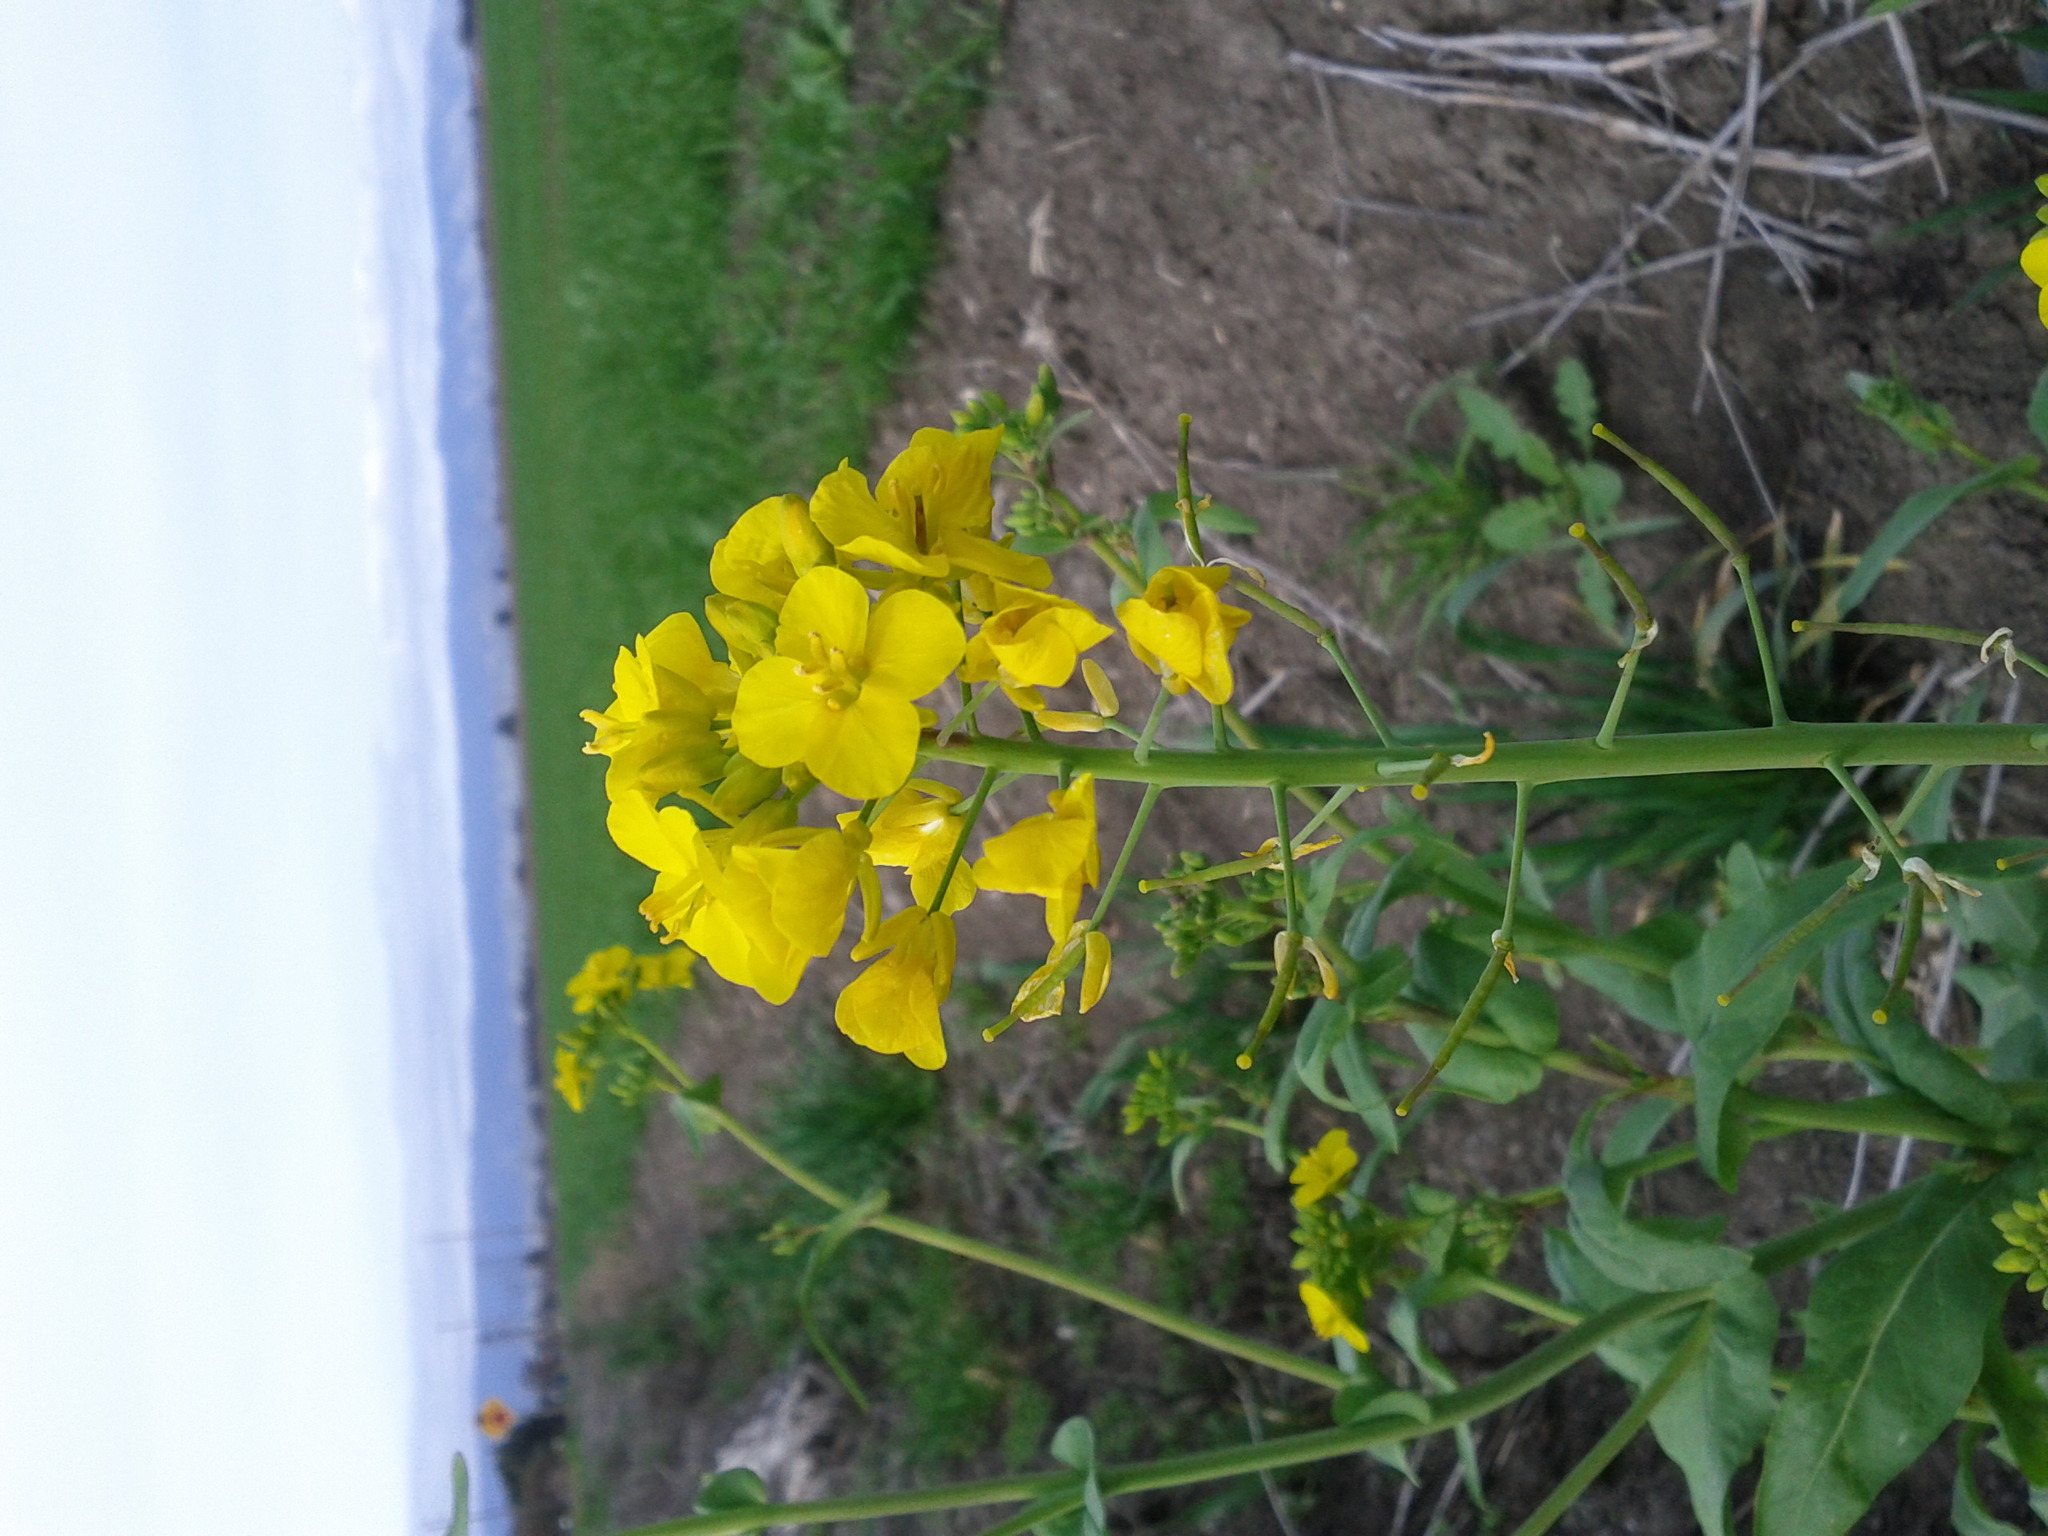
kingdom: Plantae
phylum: Tracheophyta
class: Magnoliopsida
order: Brassicales
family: Brassicaceae
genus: Brassica
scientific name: Brassica rapa
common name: Field mustard
